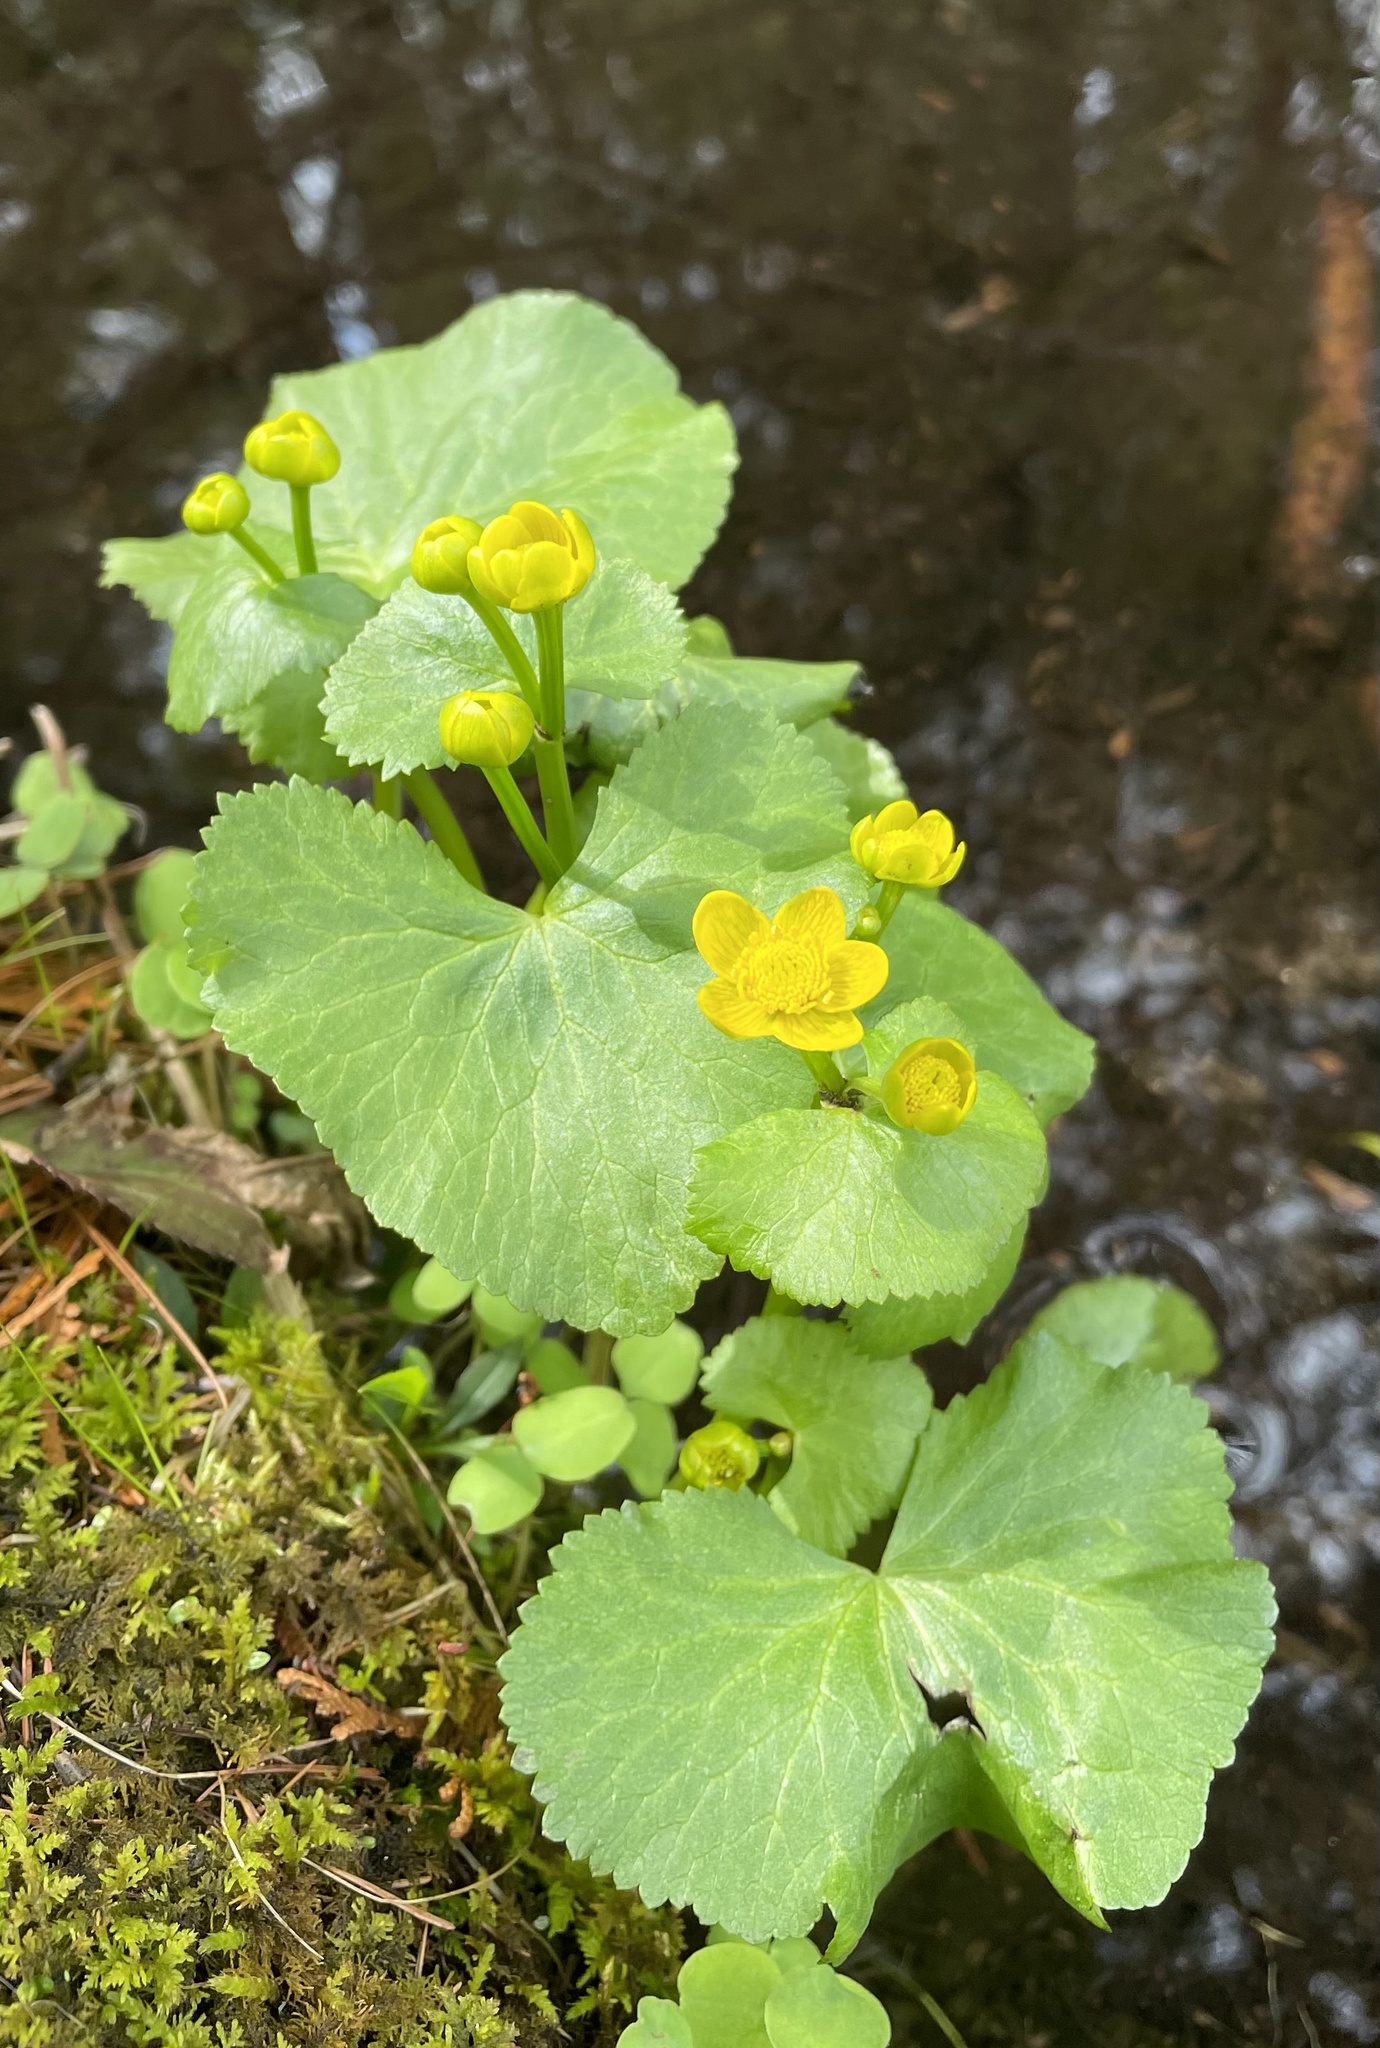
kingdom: Plantae
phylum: Tracheophyta
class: Magnoliopsida
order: Ranunculales
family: Ranunculaceae
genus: Caltha
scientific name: Caltha palustris
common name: Marsh marigold
